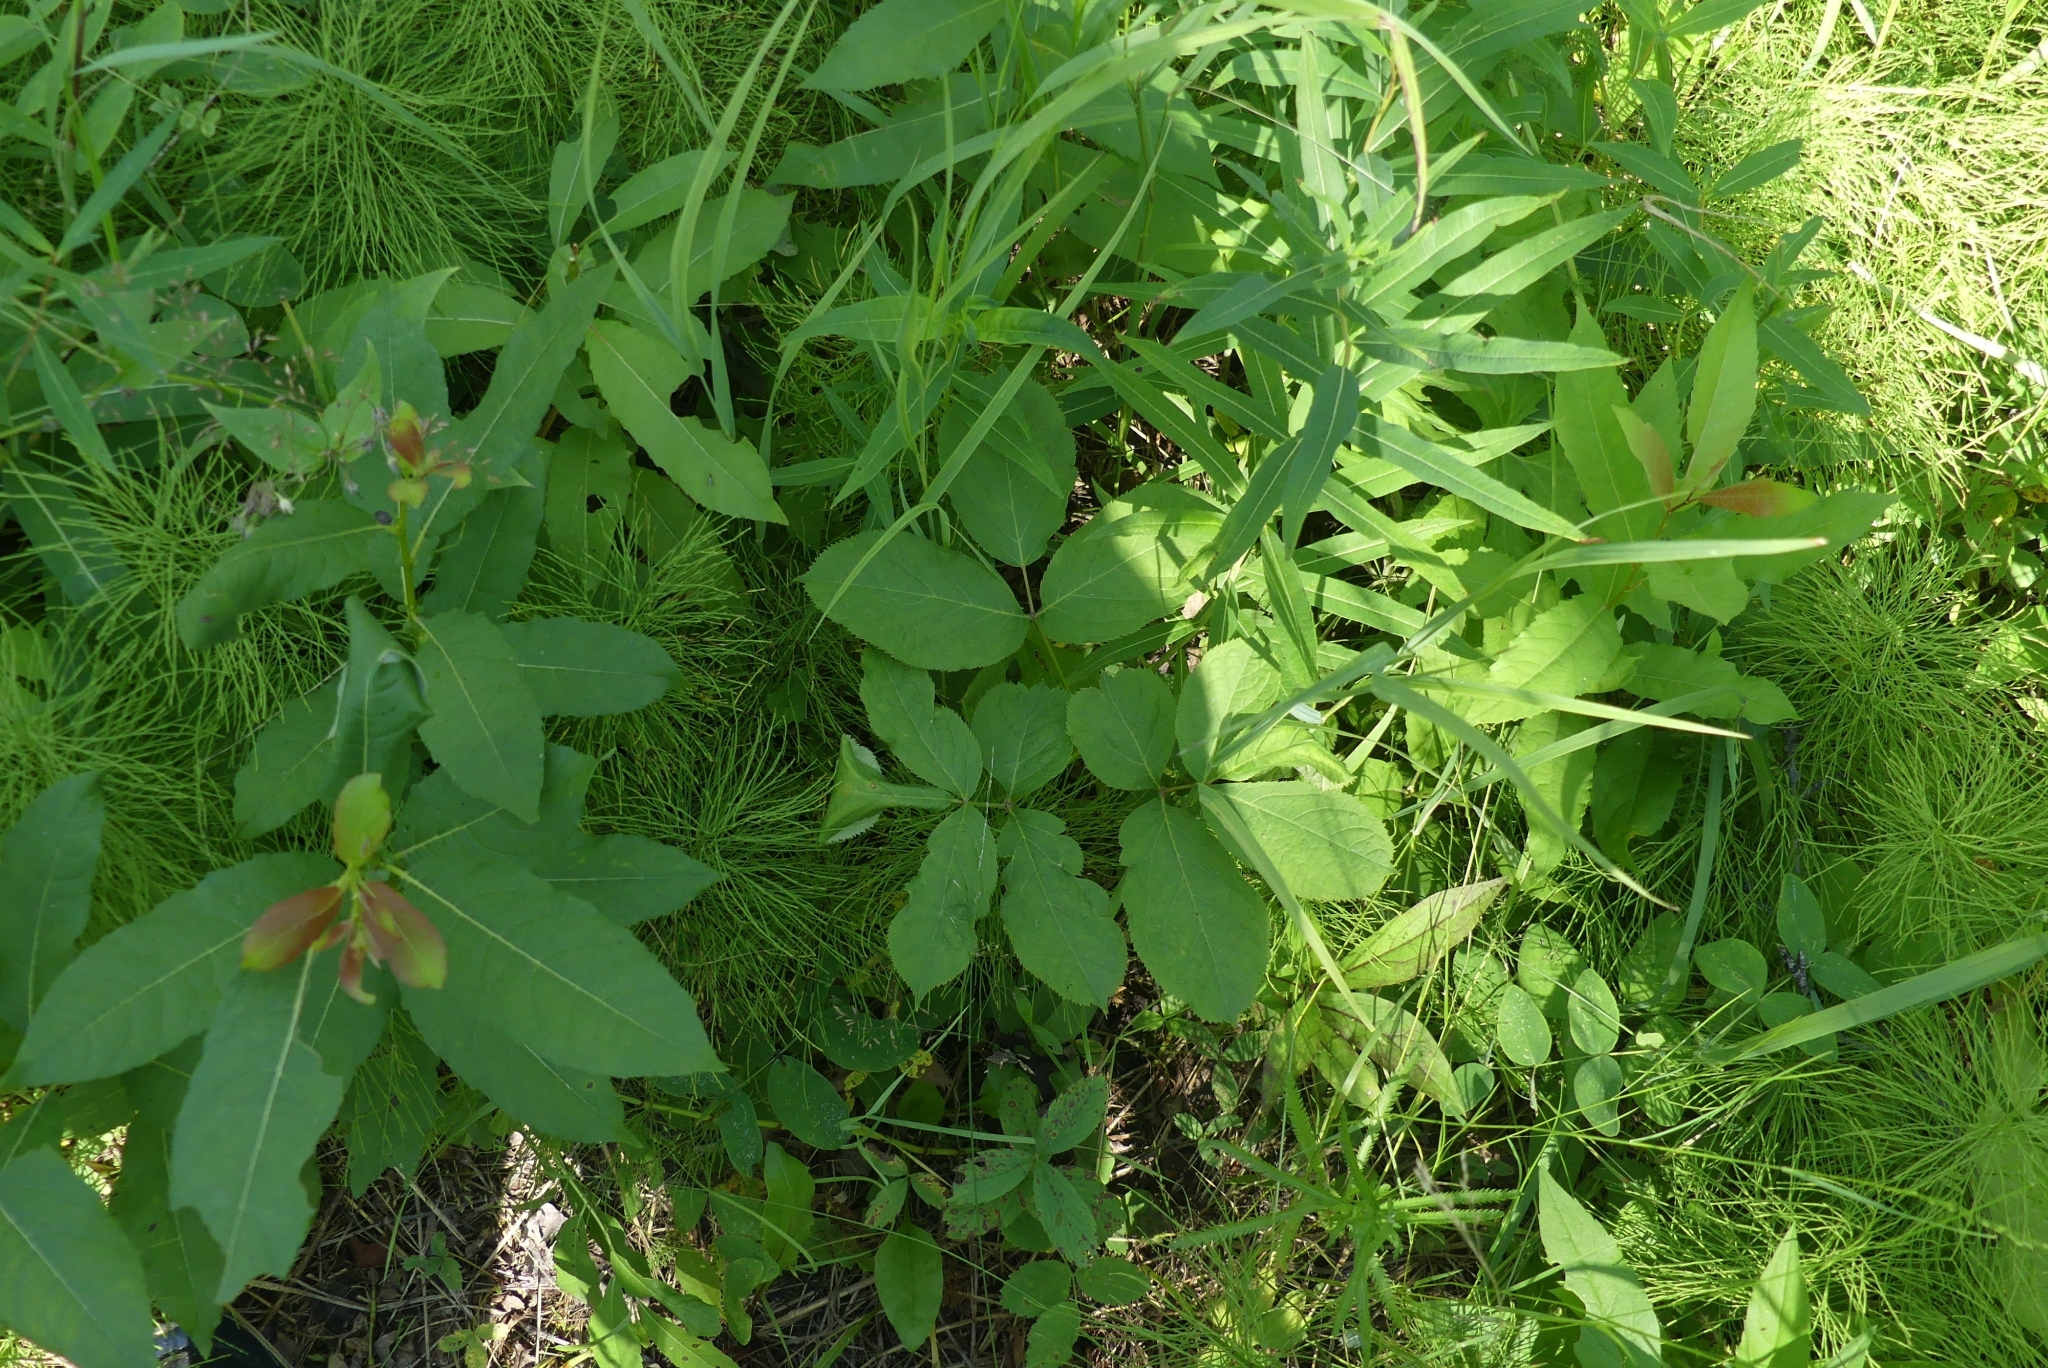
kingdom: Plantae
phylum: Tracheophyta
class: Magnoliopsida
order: Apiales
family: Araliaceae
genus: Aralia
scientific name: Aralia nudicaulis
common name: Wild sarsaparilla
